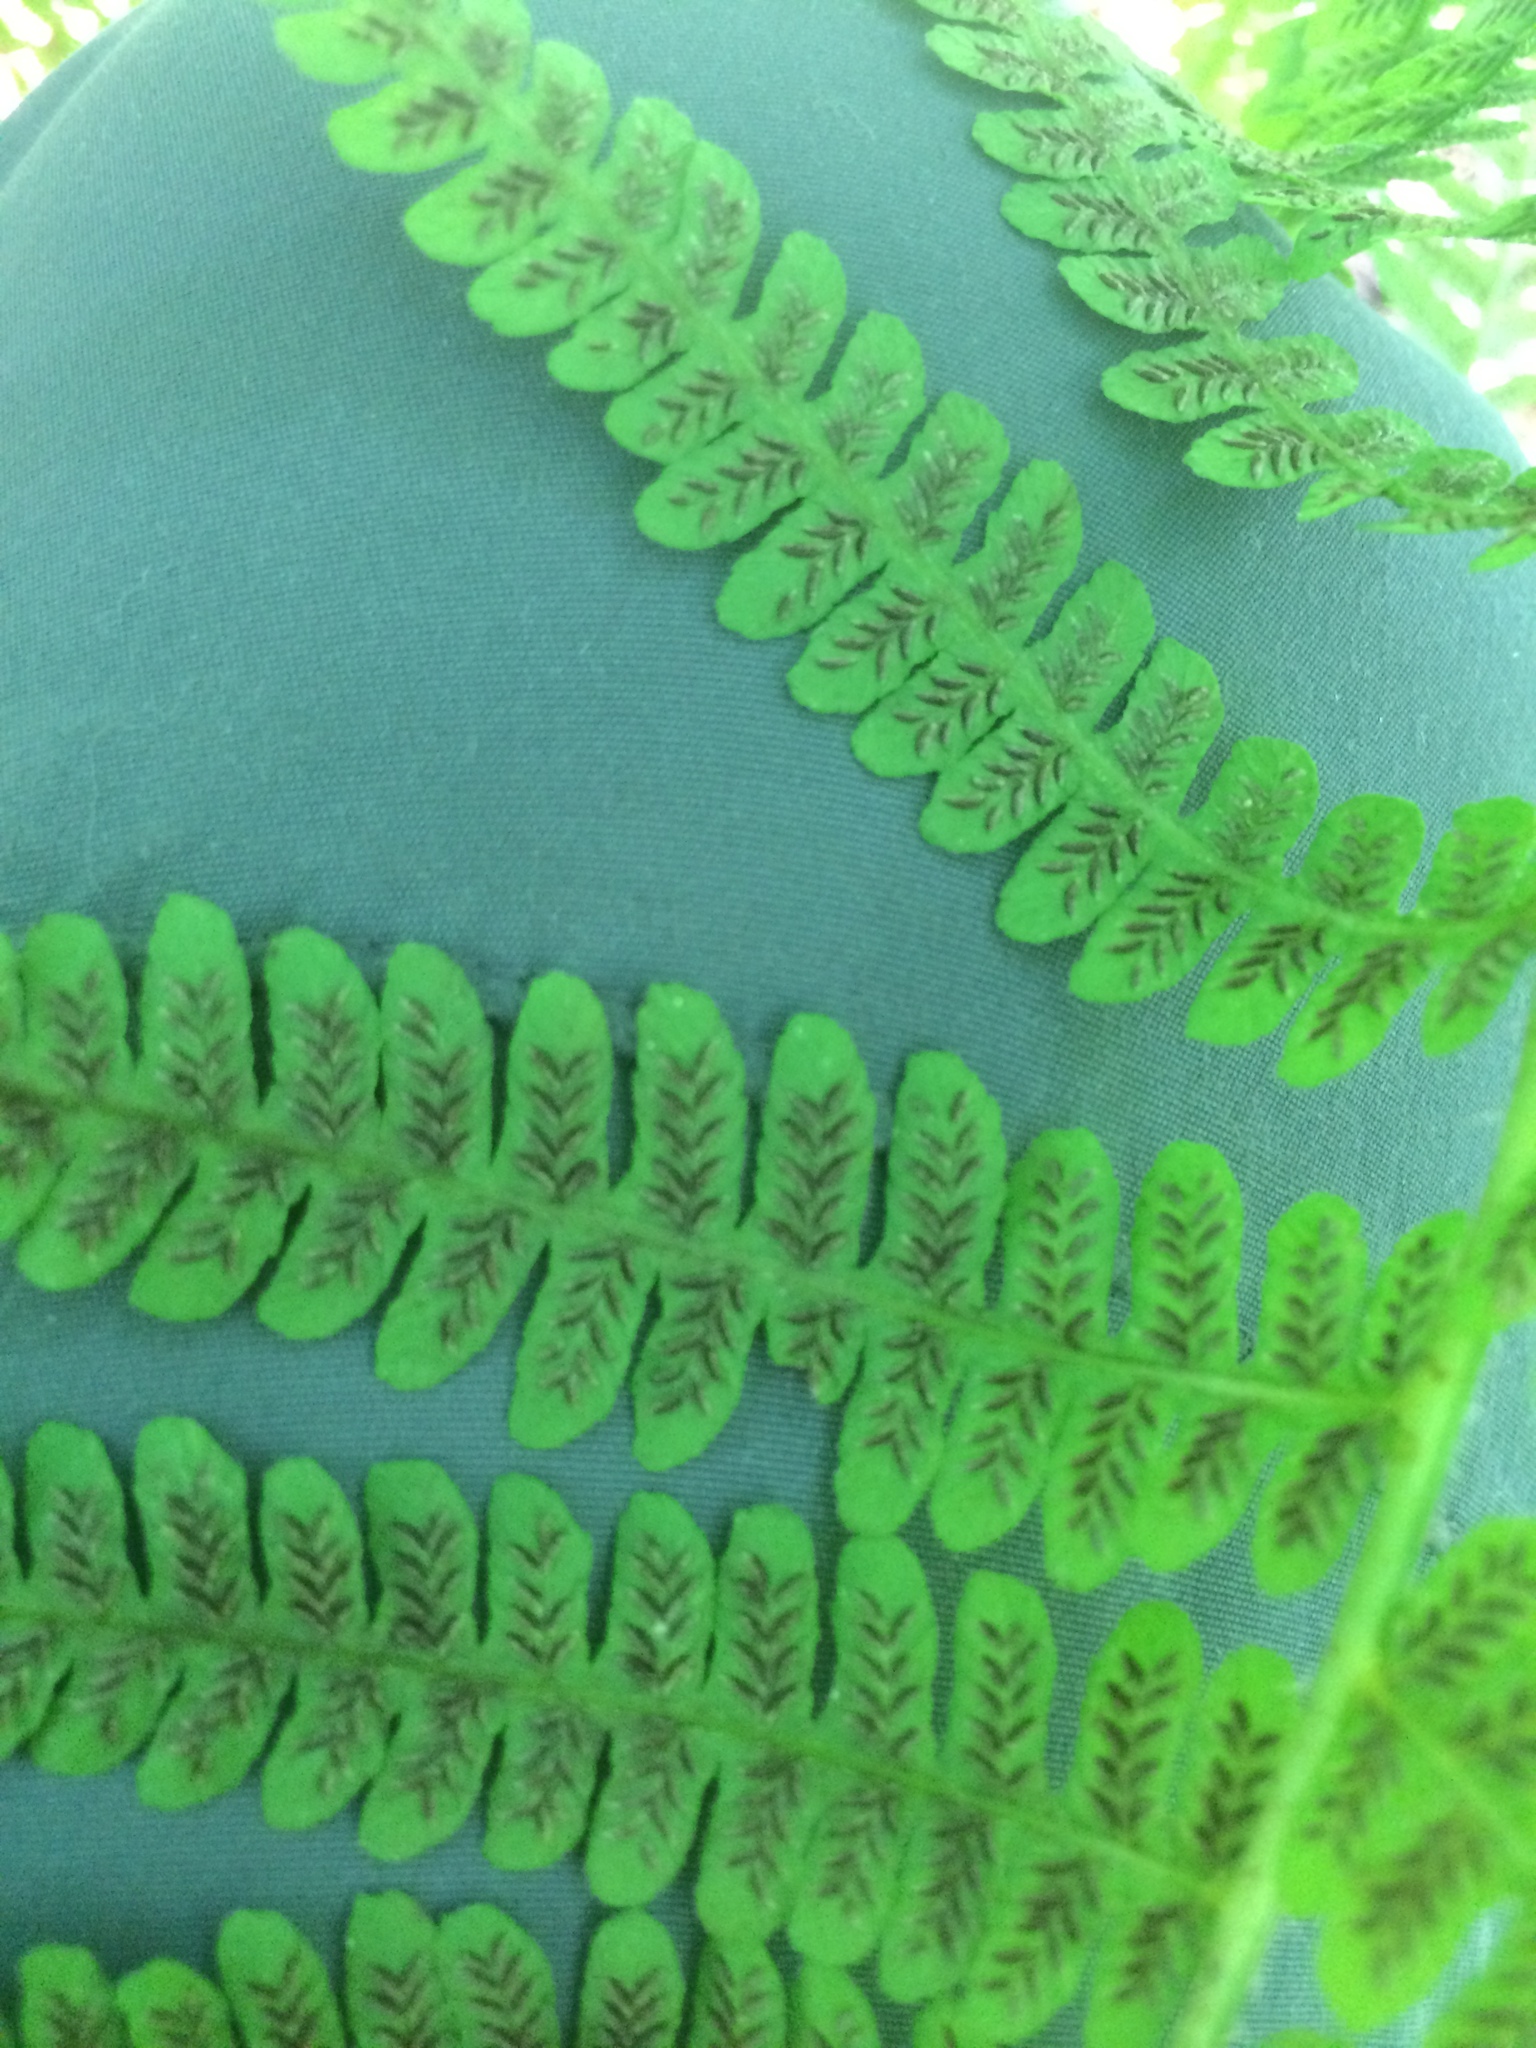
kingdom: Plantae
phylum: Tracheophyta
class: Polypodiopsida
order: Polypodiales
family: Athyriaceae
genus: Deparia
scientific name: Deparia acrostichoides
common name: Silver false spleenwort
